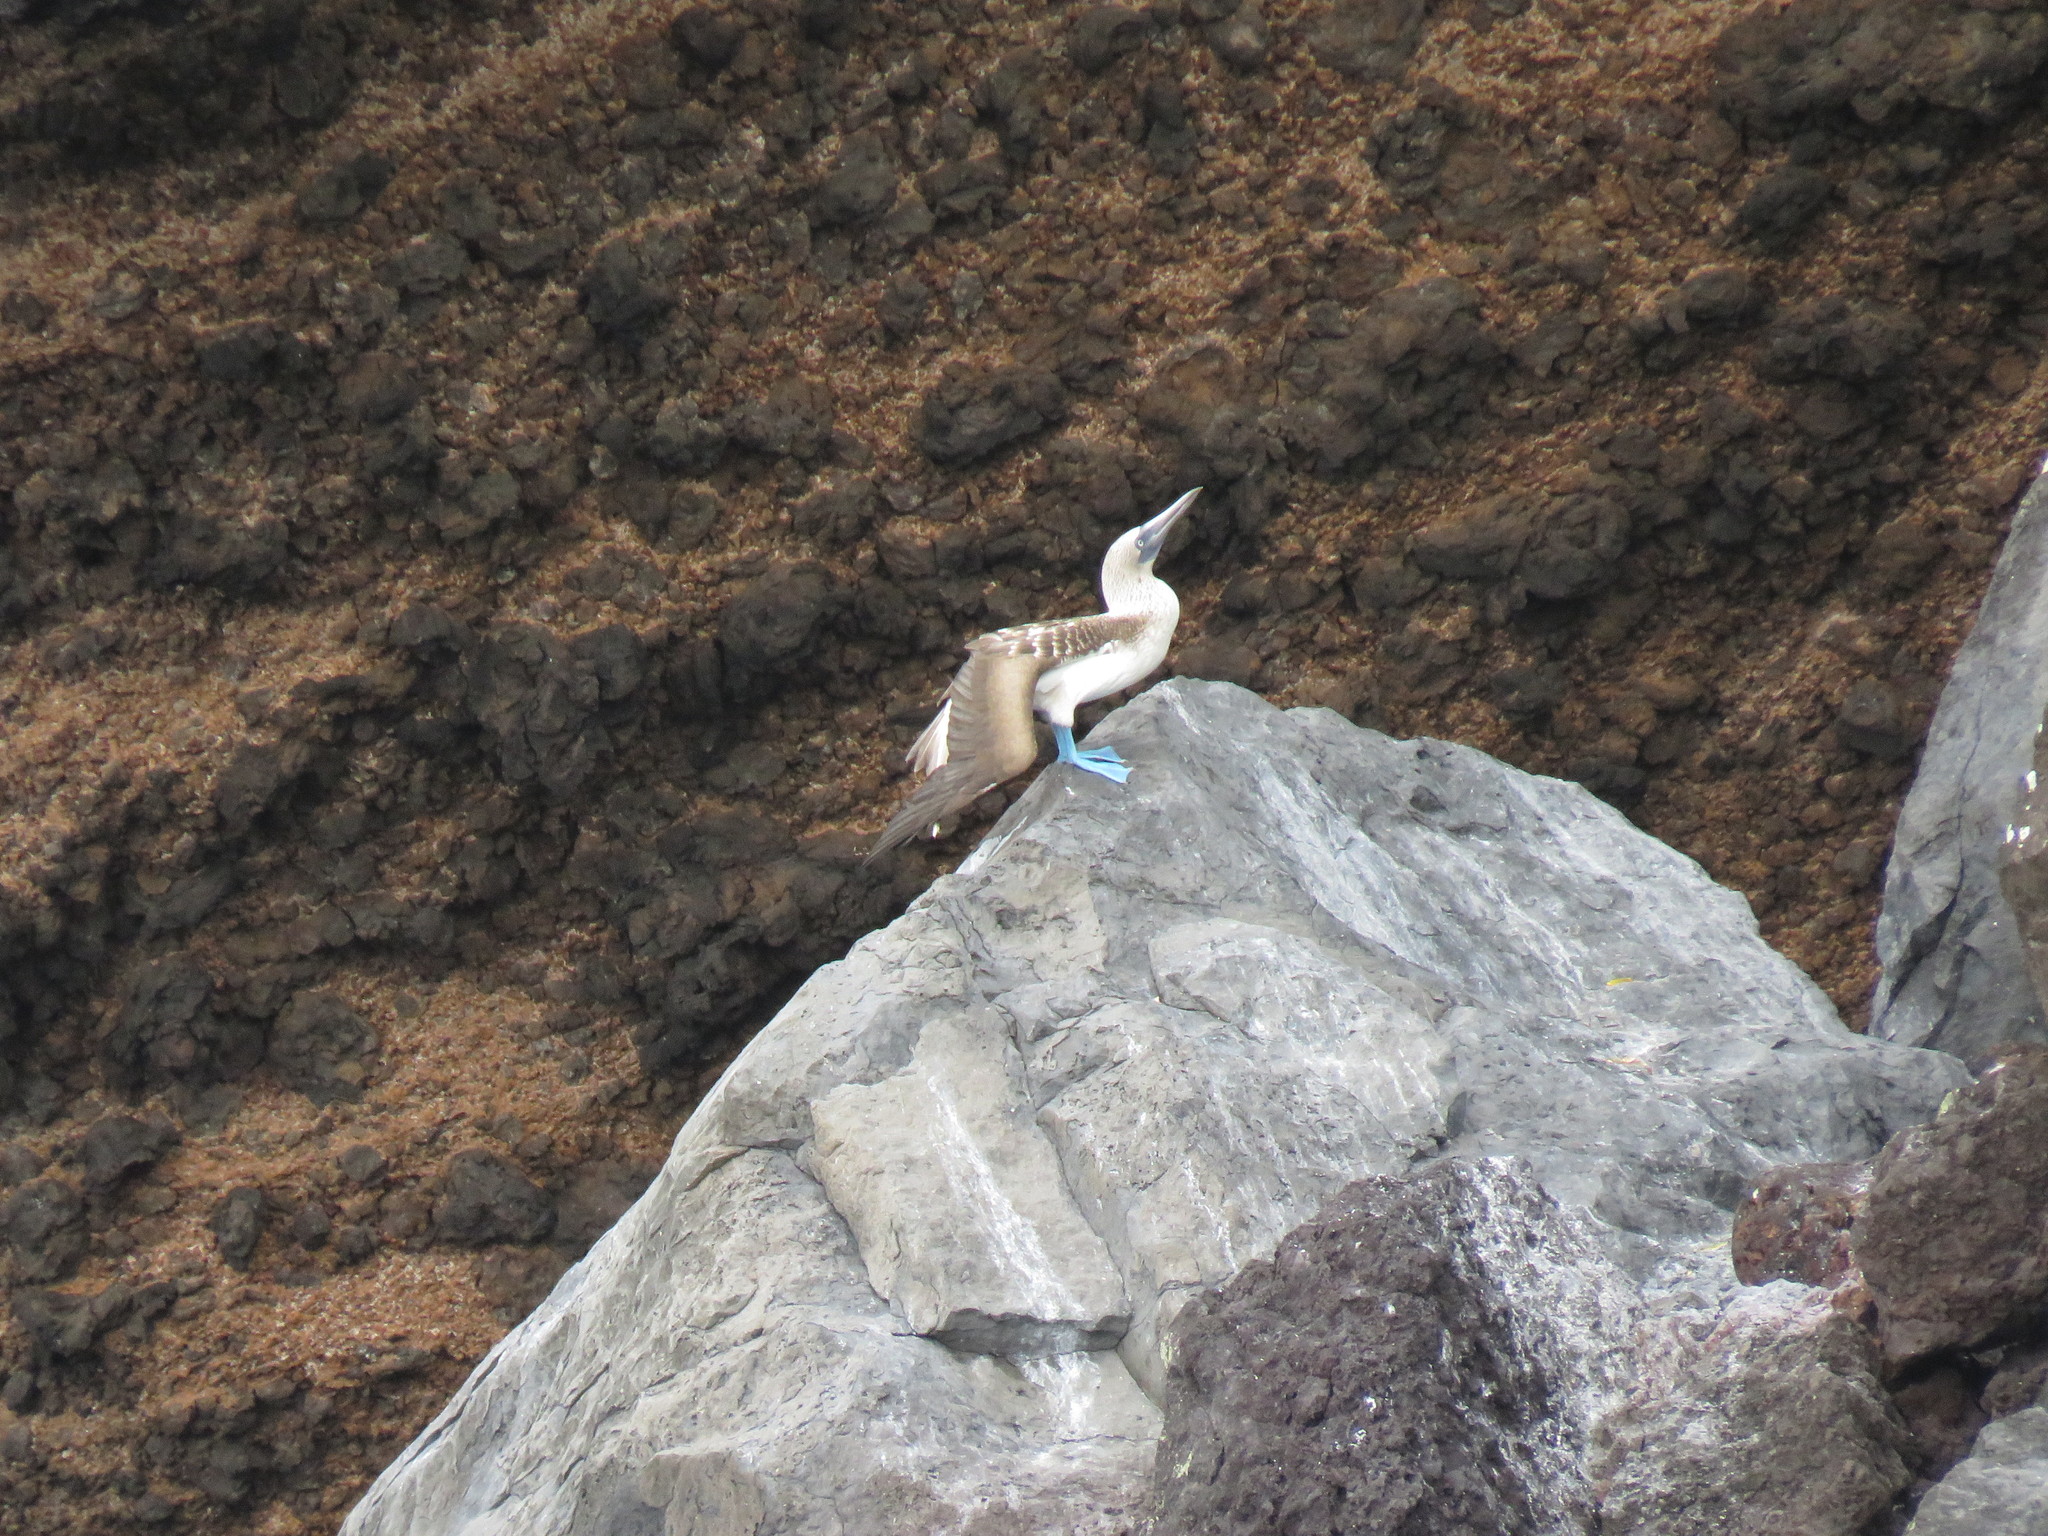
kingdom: Animalia
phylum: Chordata
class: Aves
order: Suliformes
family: Sulidae
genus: Sula
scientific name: Sula nebouxii
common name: Blue-footed booby
